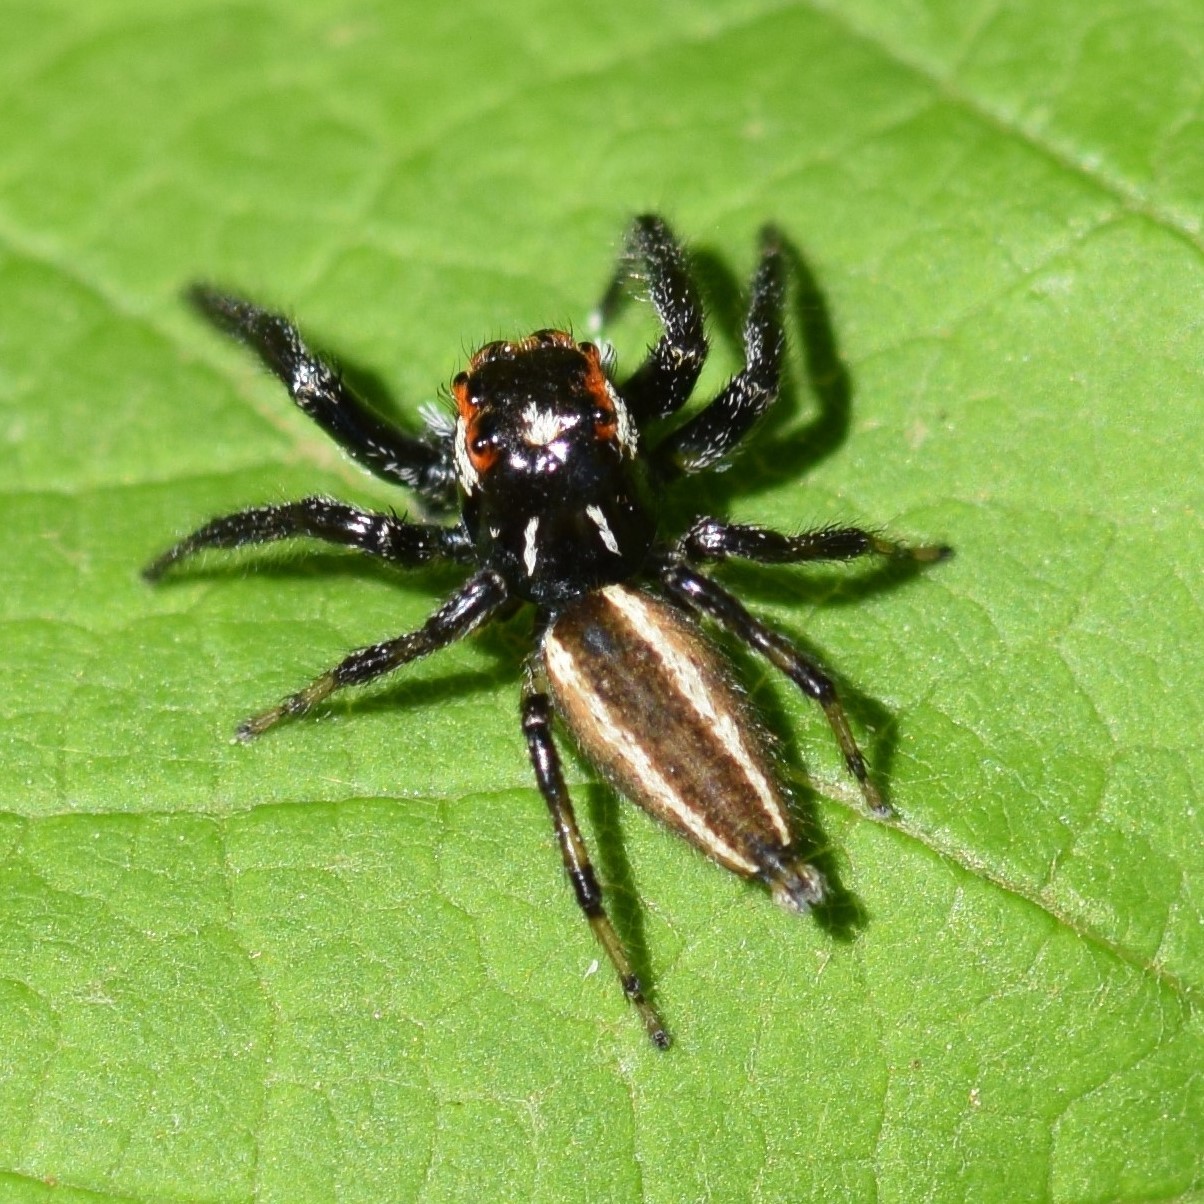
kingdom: Animalia
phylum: Arthropoda
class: Arachnida
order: Araneae
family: Salticidae
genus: Colonus
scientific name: Colonus sylvanus
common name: Jumping spiders
